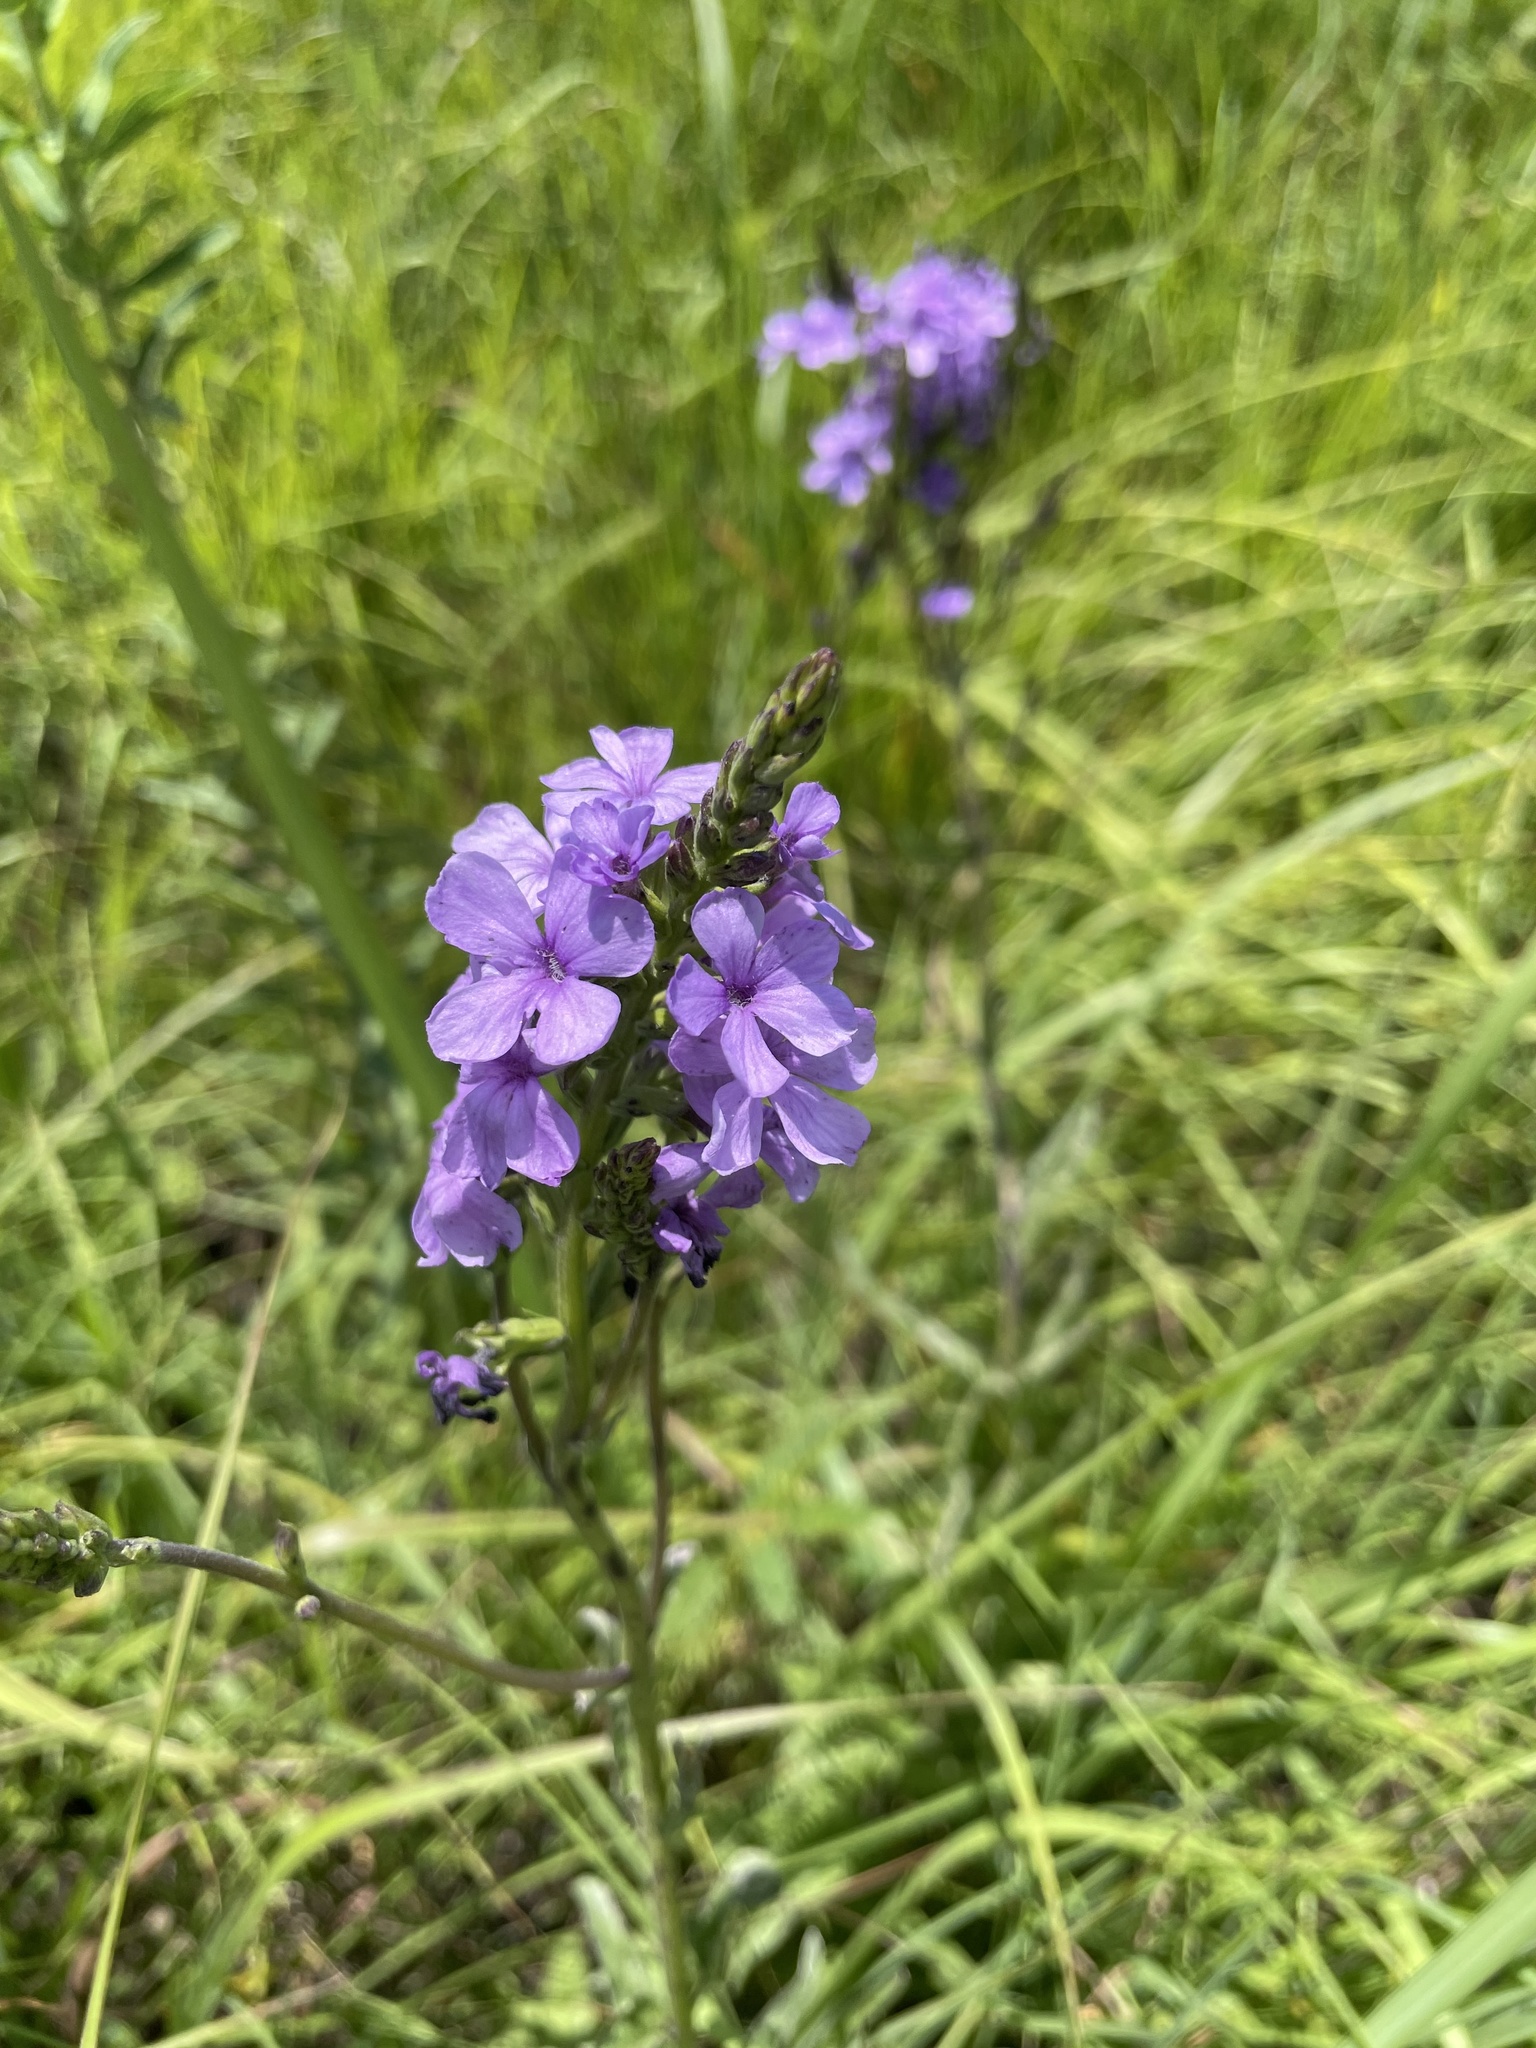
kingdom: Plantae
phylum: Tracheophyta
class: Magnoliopsida
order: Lamiales
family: Orobanchaceae
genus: Buchnera
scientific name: Buchnera americana
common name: American bluehearts
